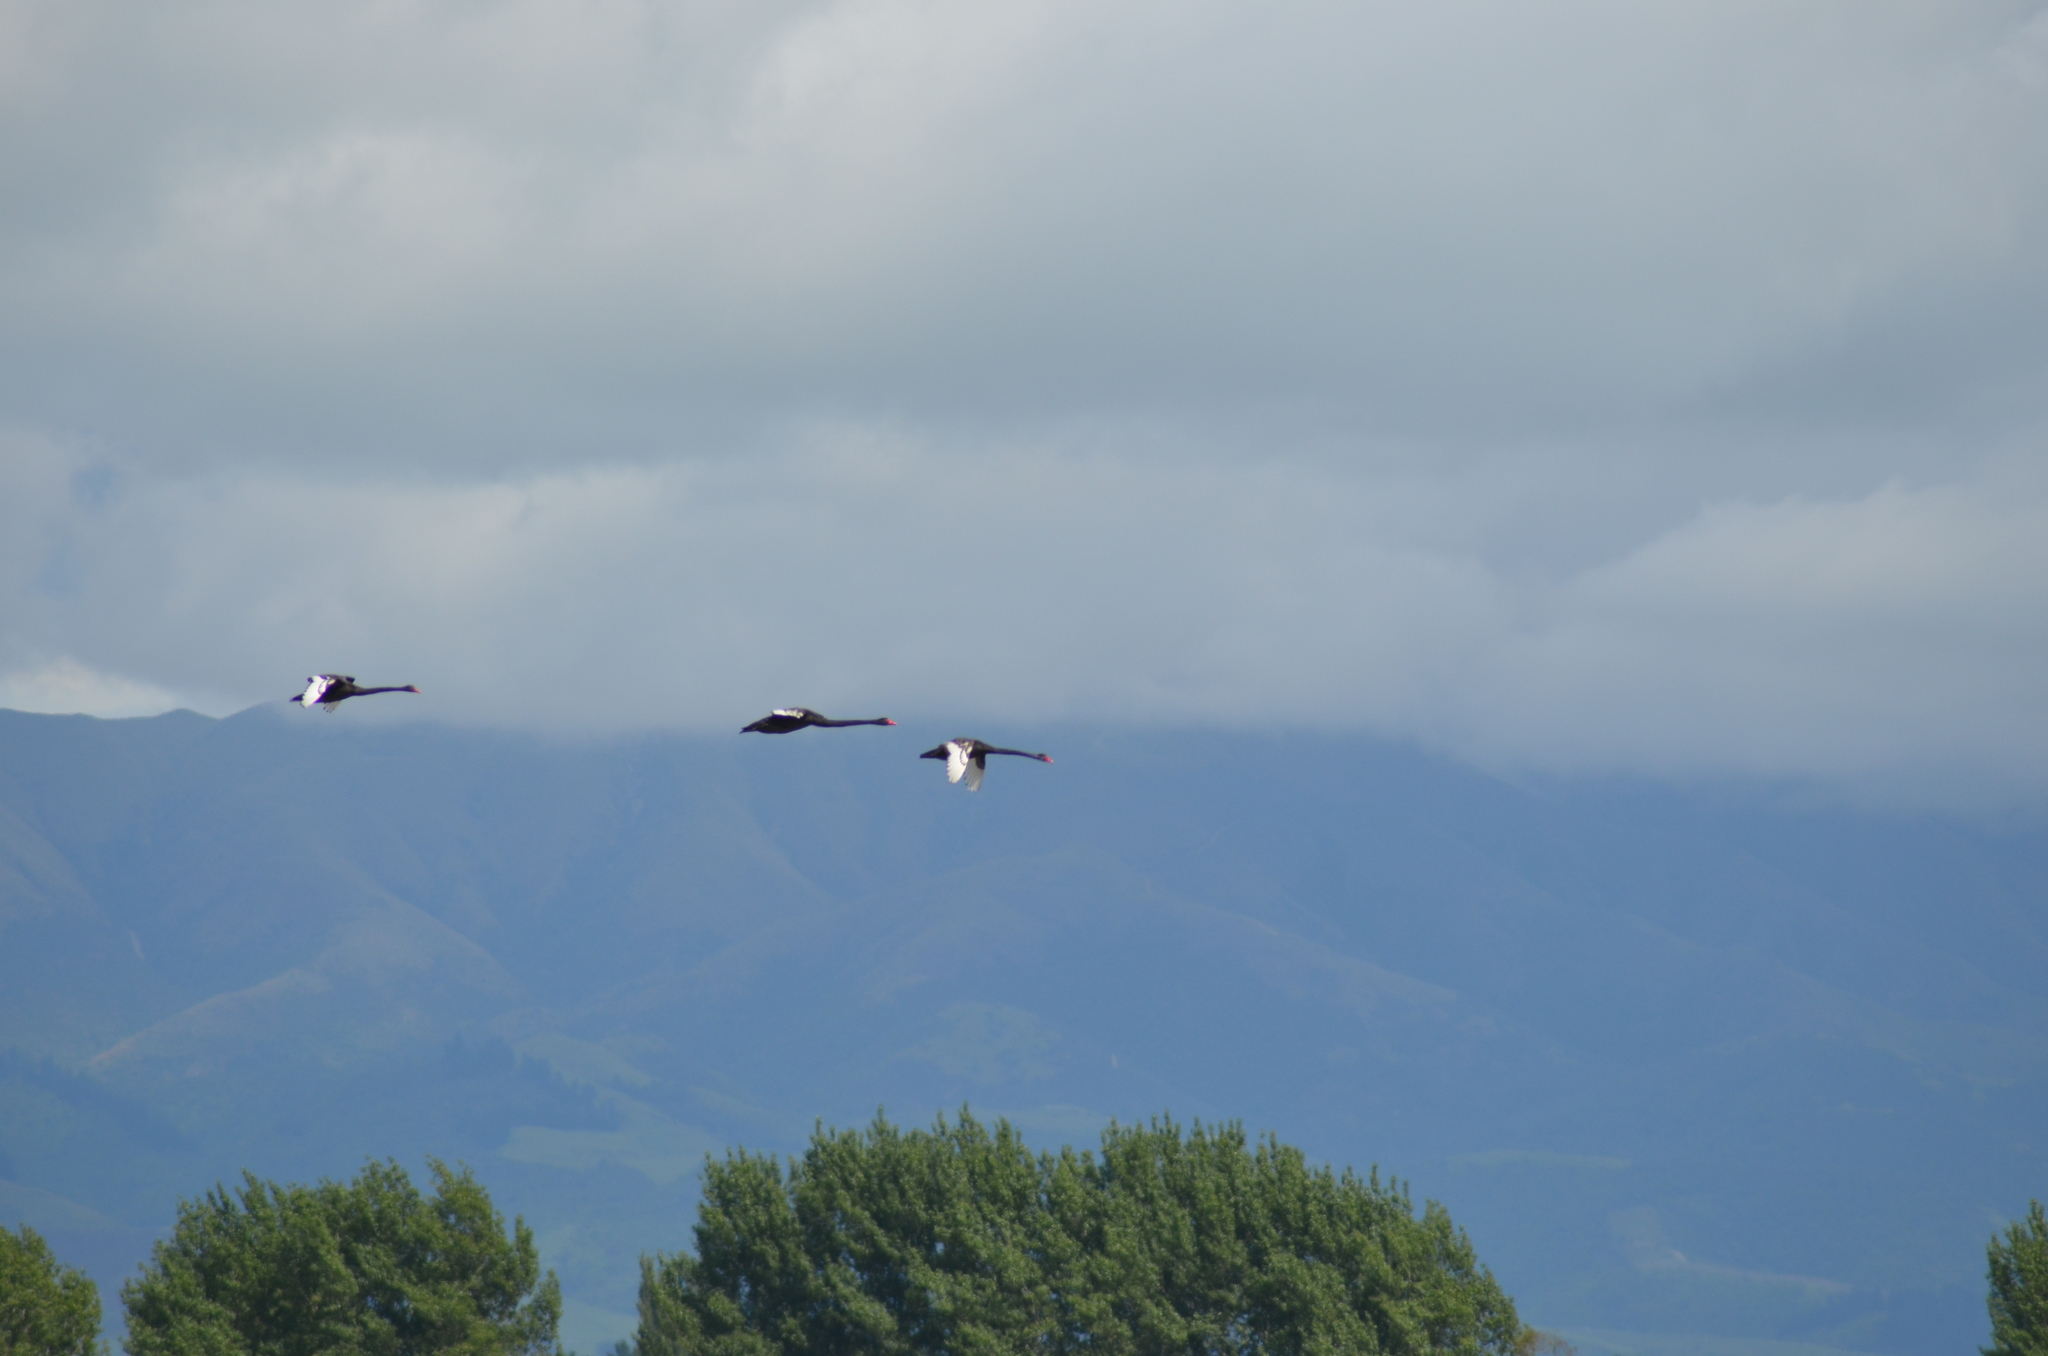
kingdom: Animalia
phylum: Chordata
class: Aves
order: Anseriformes
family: Anatidae
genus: Cygnus
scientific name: Cygnus atratus
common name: Black swan
